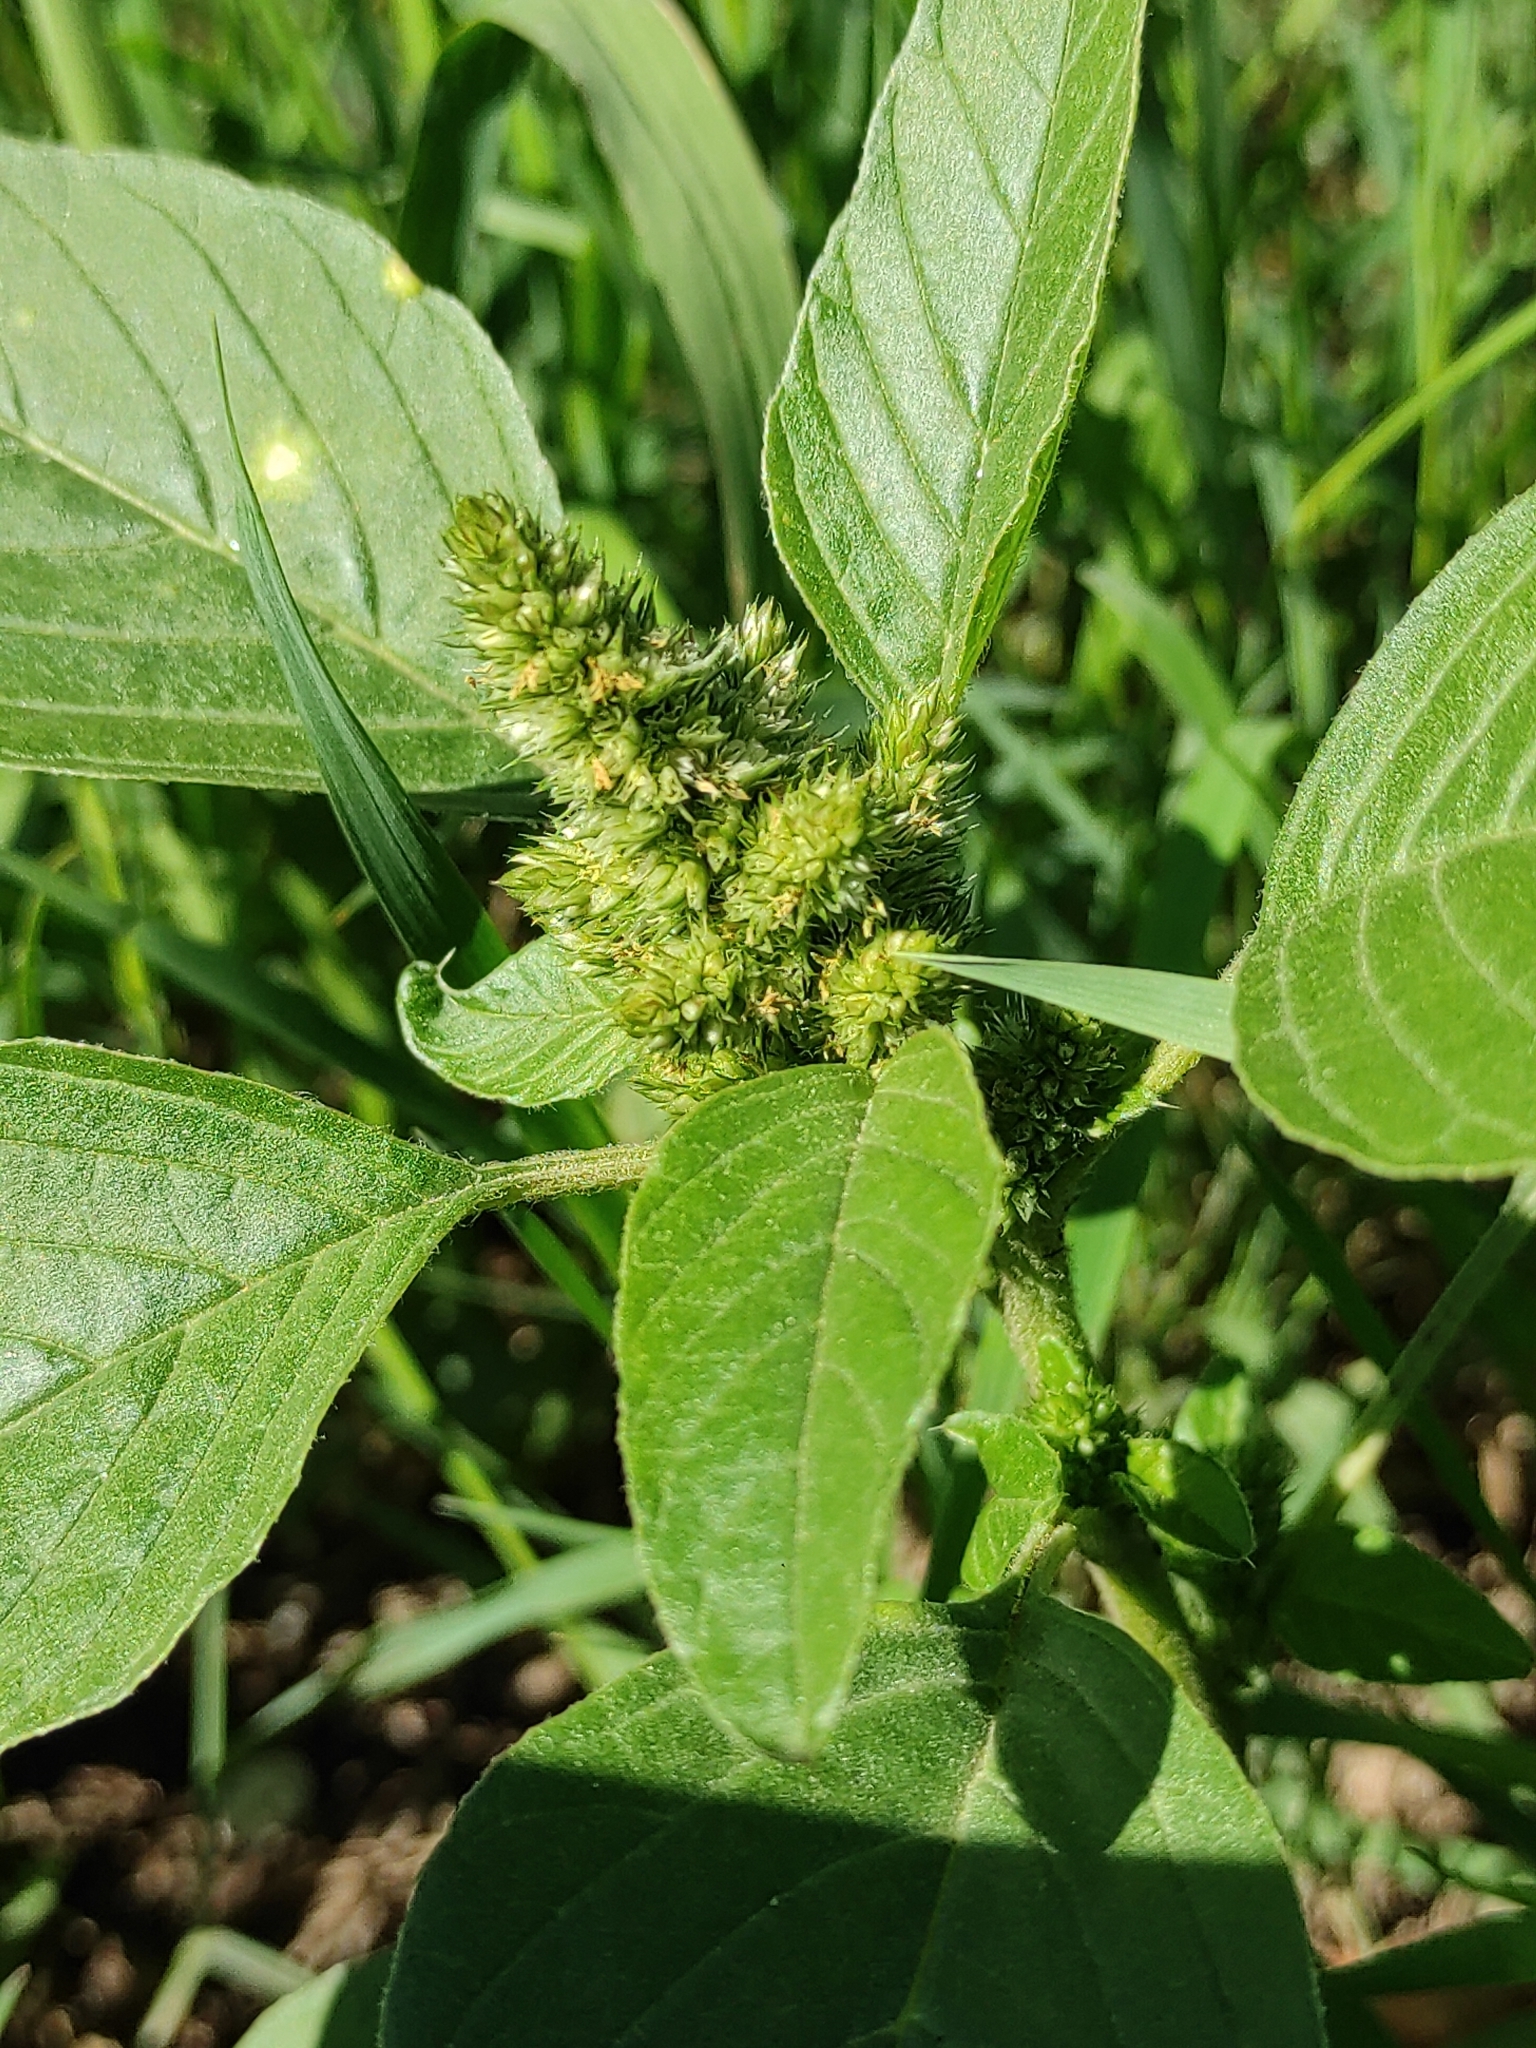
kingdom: Plantae
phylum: Tracheophyta
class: Magnoliopsida
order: Caryophyllales
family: Amaranthaceae
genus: Amaranthus
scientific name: Amaranthus retroflexus
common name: Redroot amaranth
